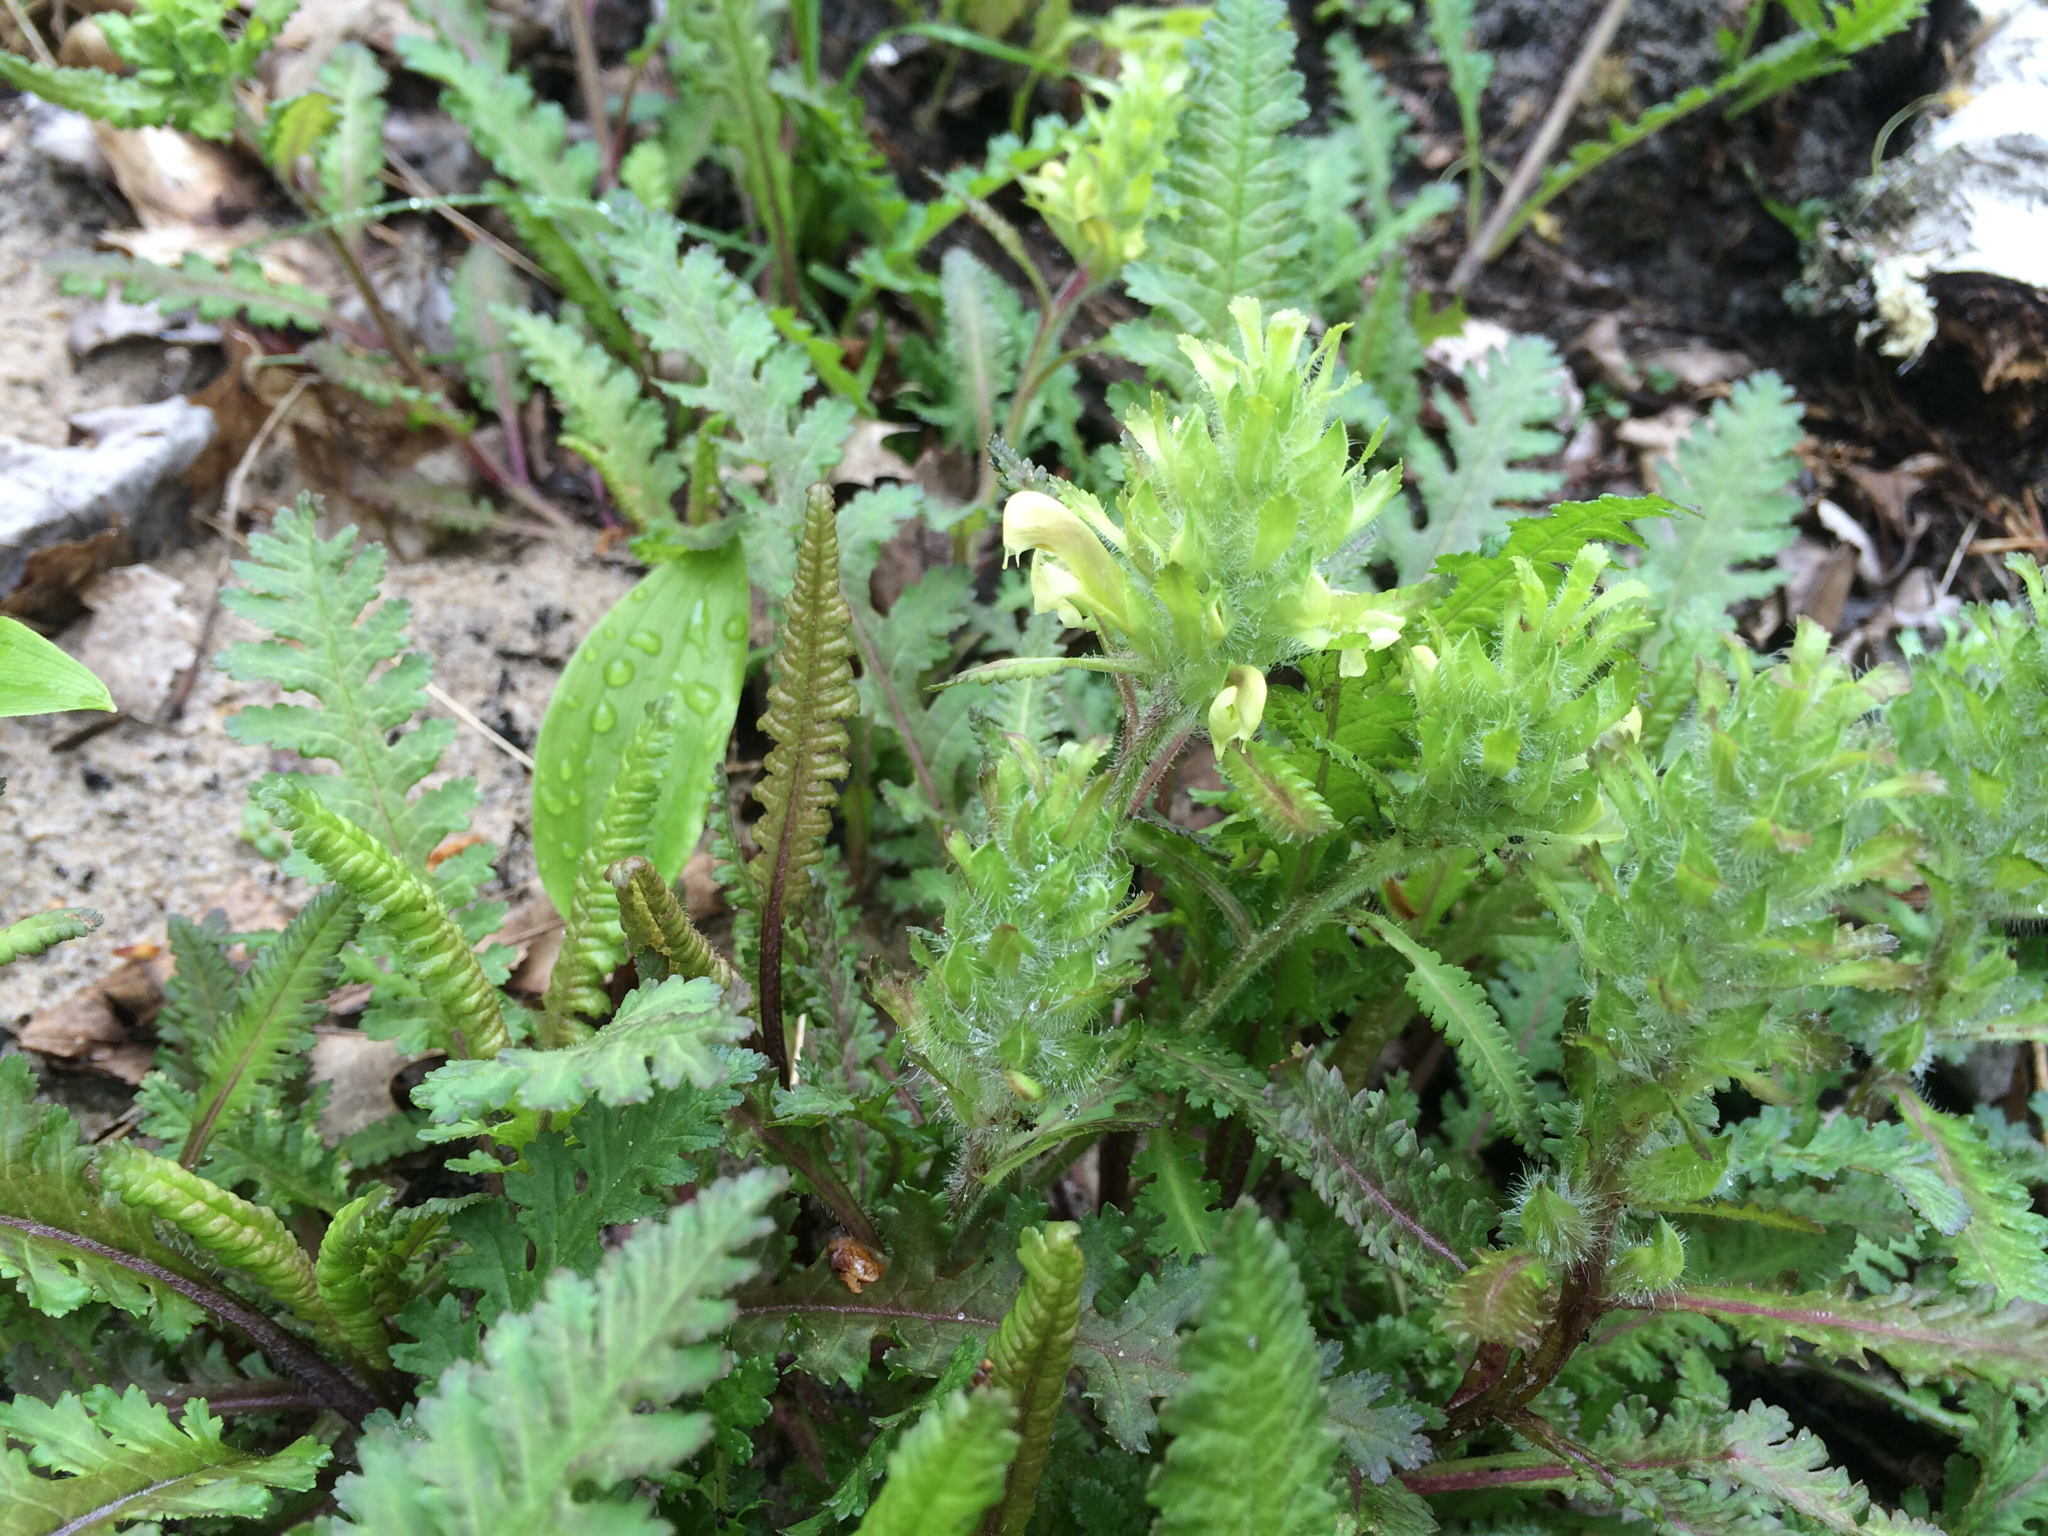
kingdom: Plantae
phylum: Tracheophyta
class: Magnoliopsida
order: Lamiales
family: Orobanchaceae
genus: Pedicularis
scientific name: Pedicularis canadensis
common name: Early lousewort
